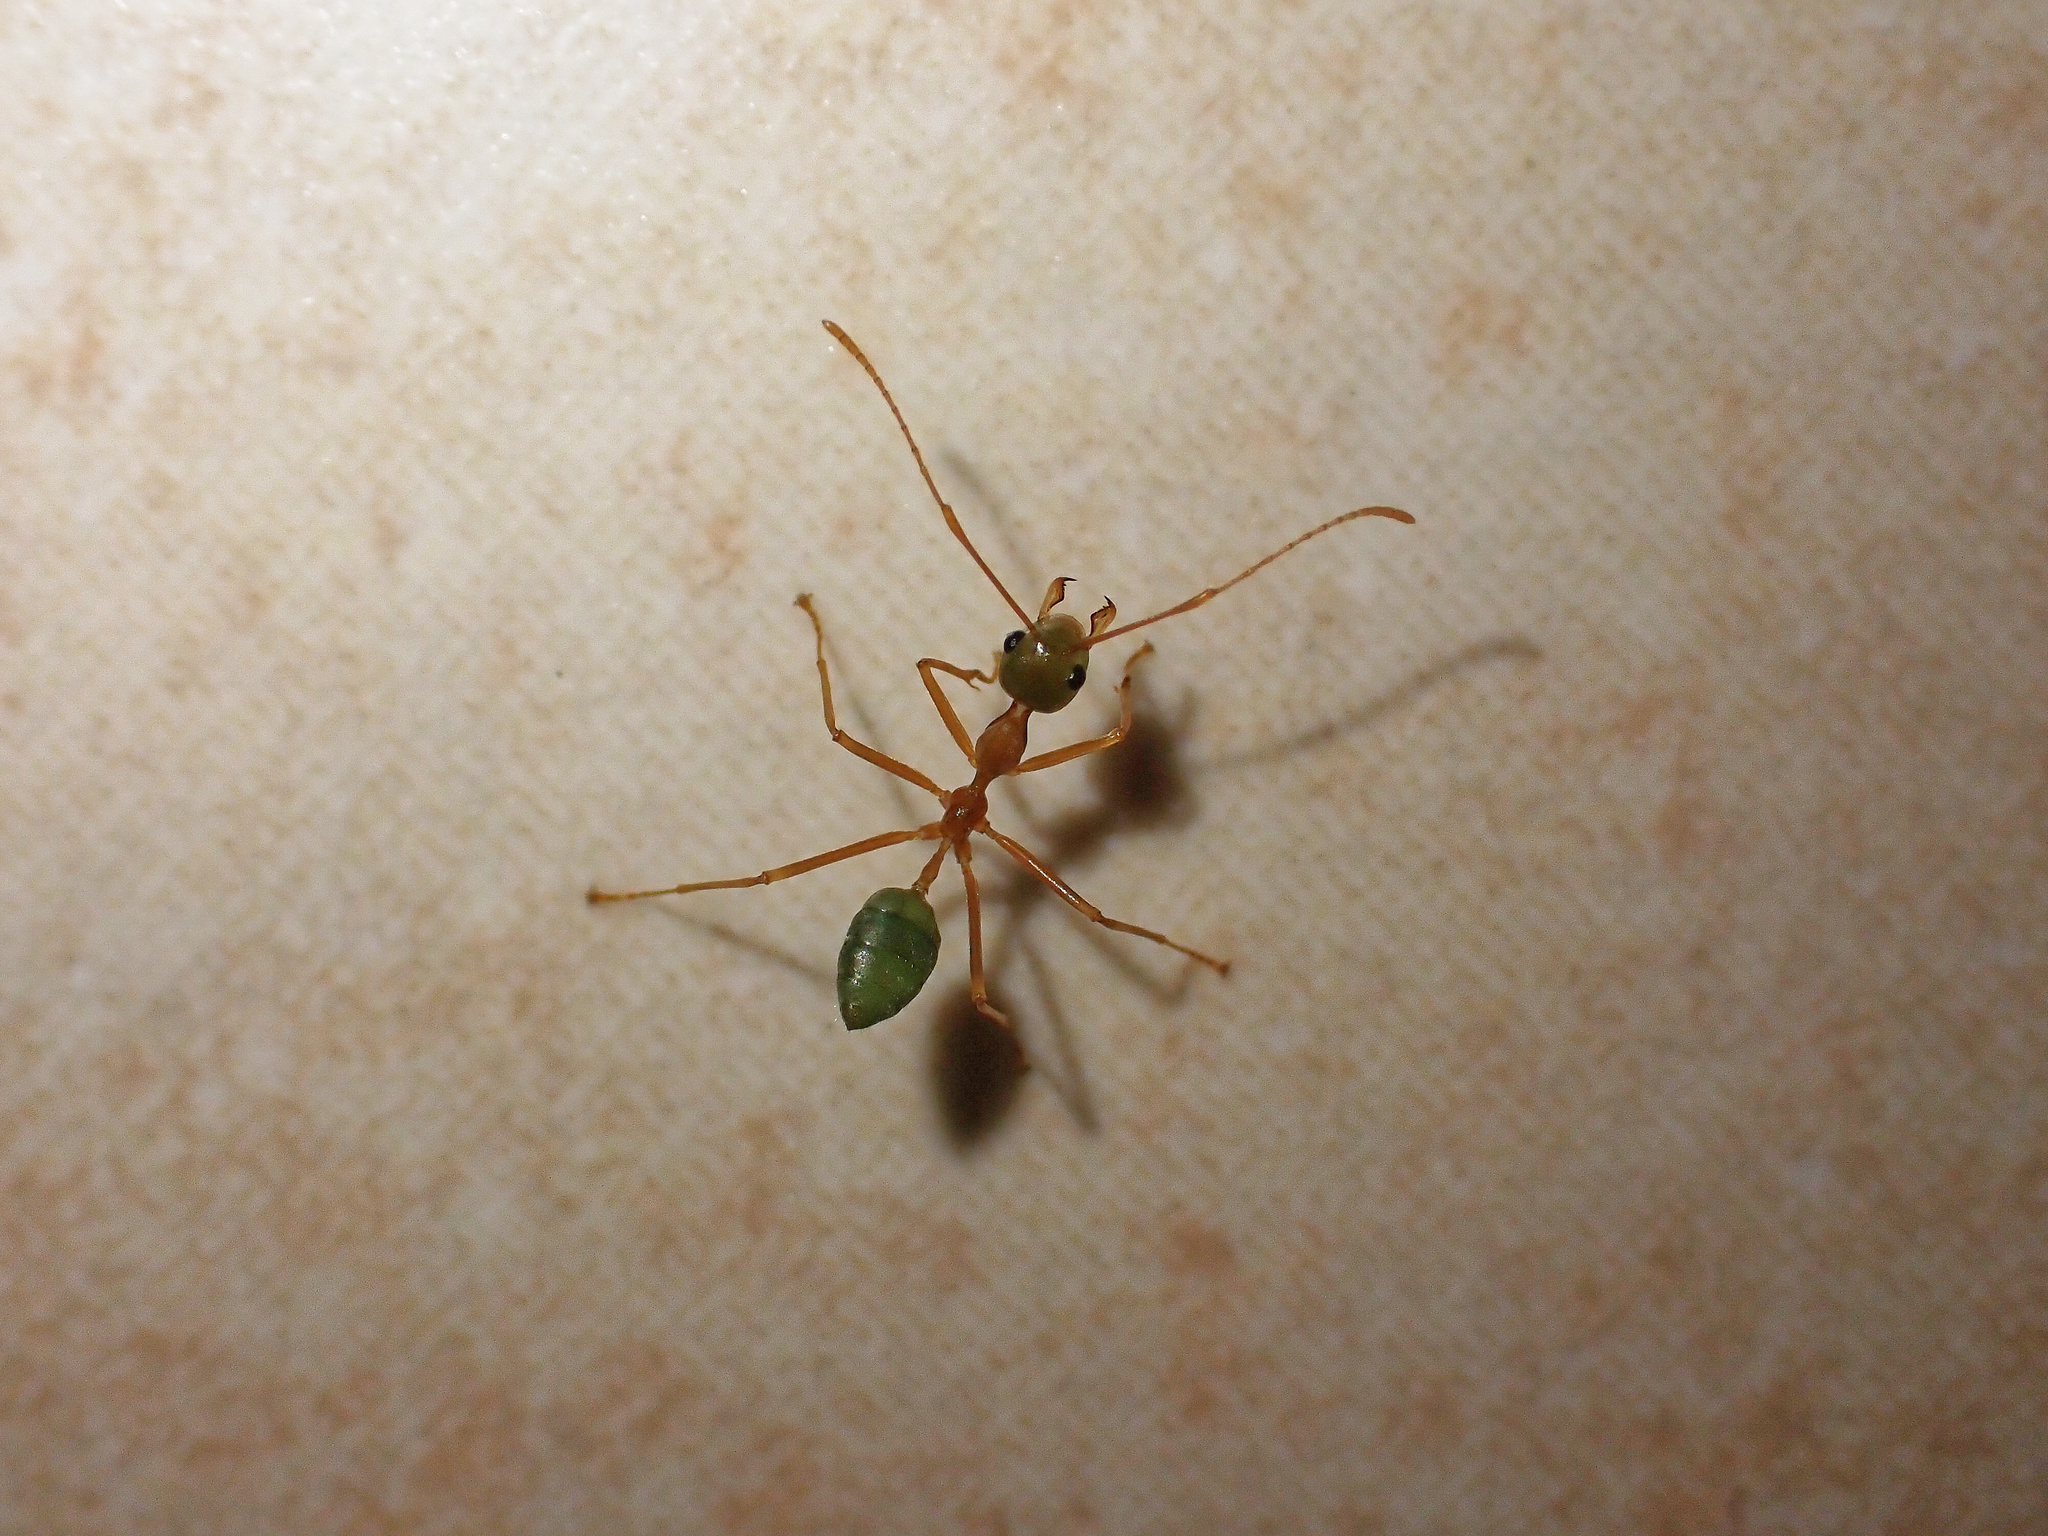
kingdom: Animalia
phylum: Arthropoda
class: Insecta
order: Hymenoptera
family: Formicidae
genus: Oecophylla
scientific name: Oecophylla smaragdina
